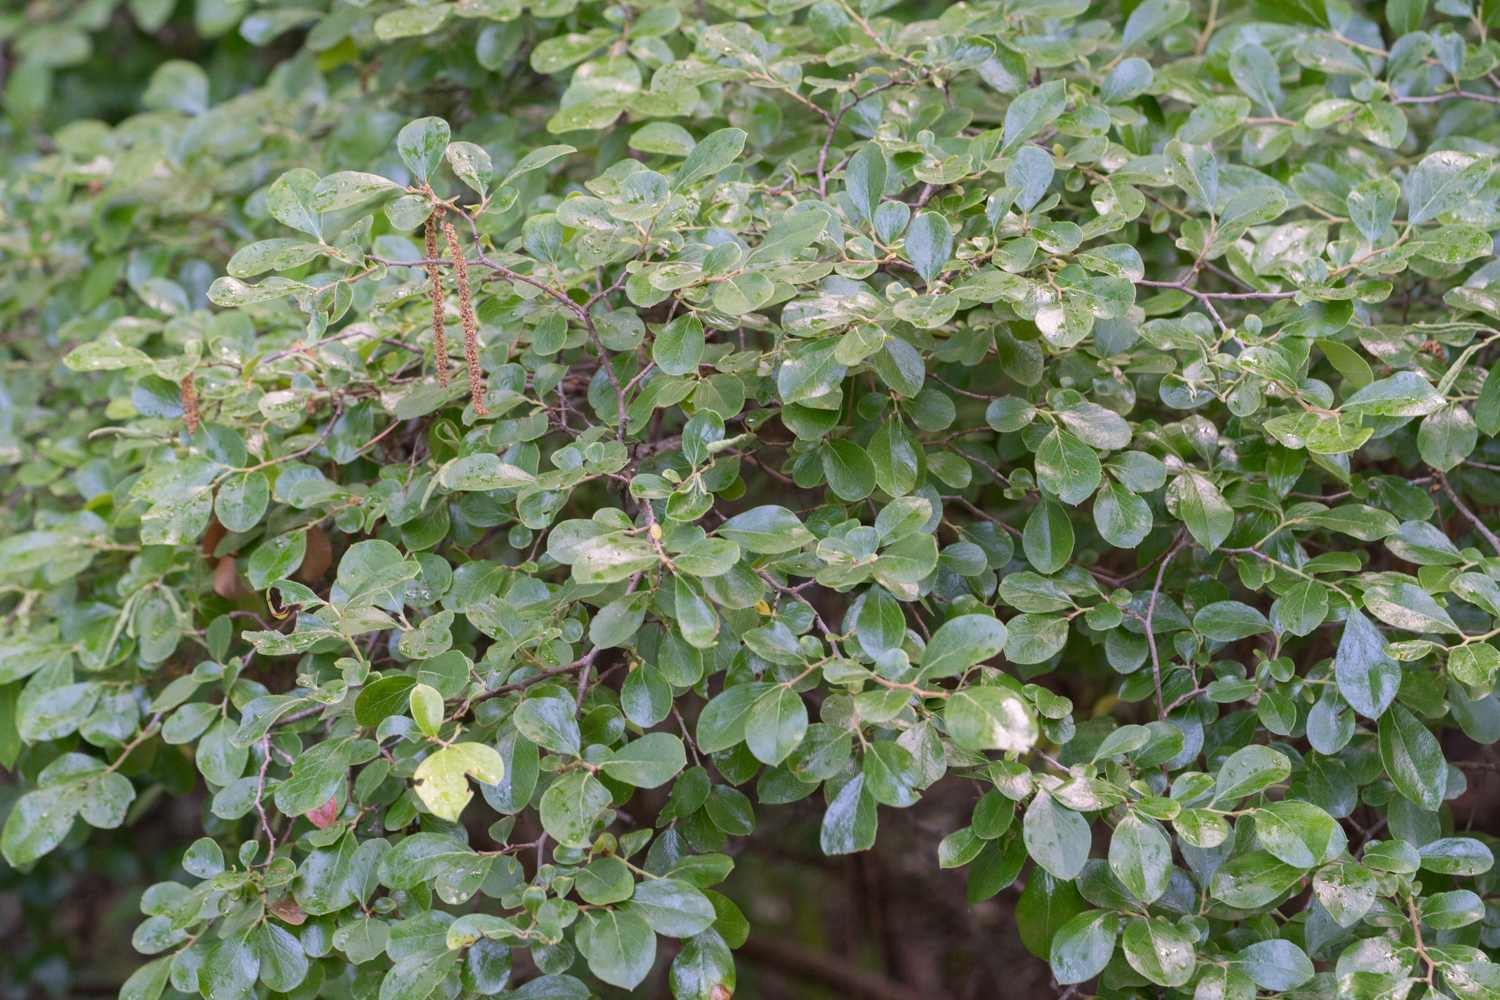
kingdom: Plantae
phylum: Tracheophyta
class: Magnoliopsida
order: Ericales
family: Ericaceae
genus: Vaccinium
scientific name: Vaccinium arboreum
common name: Farkleberry
